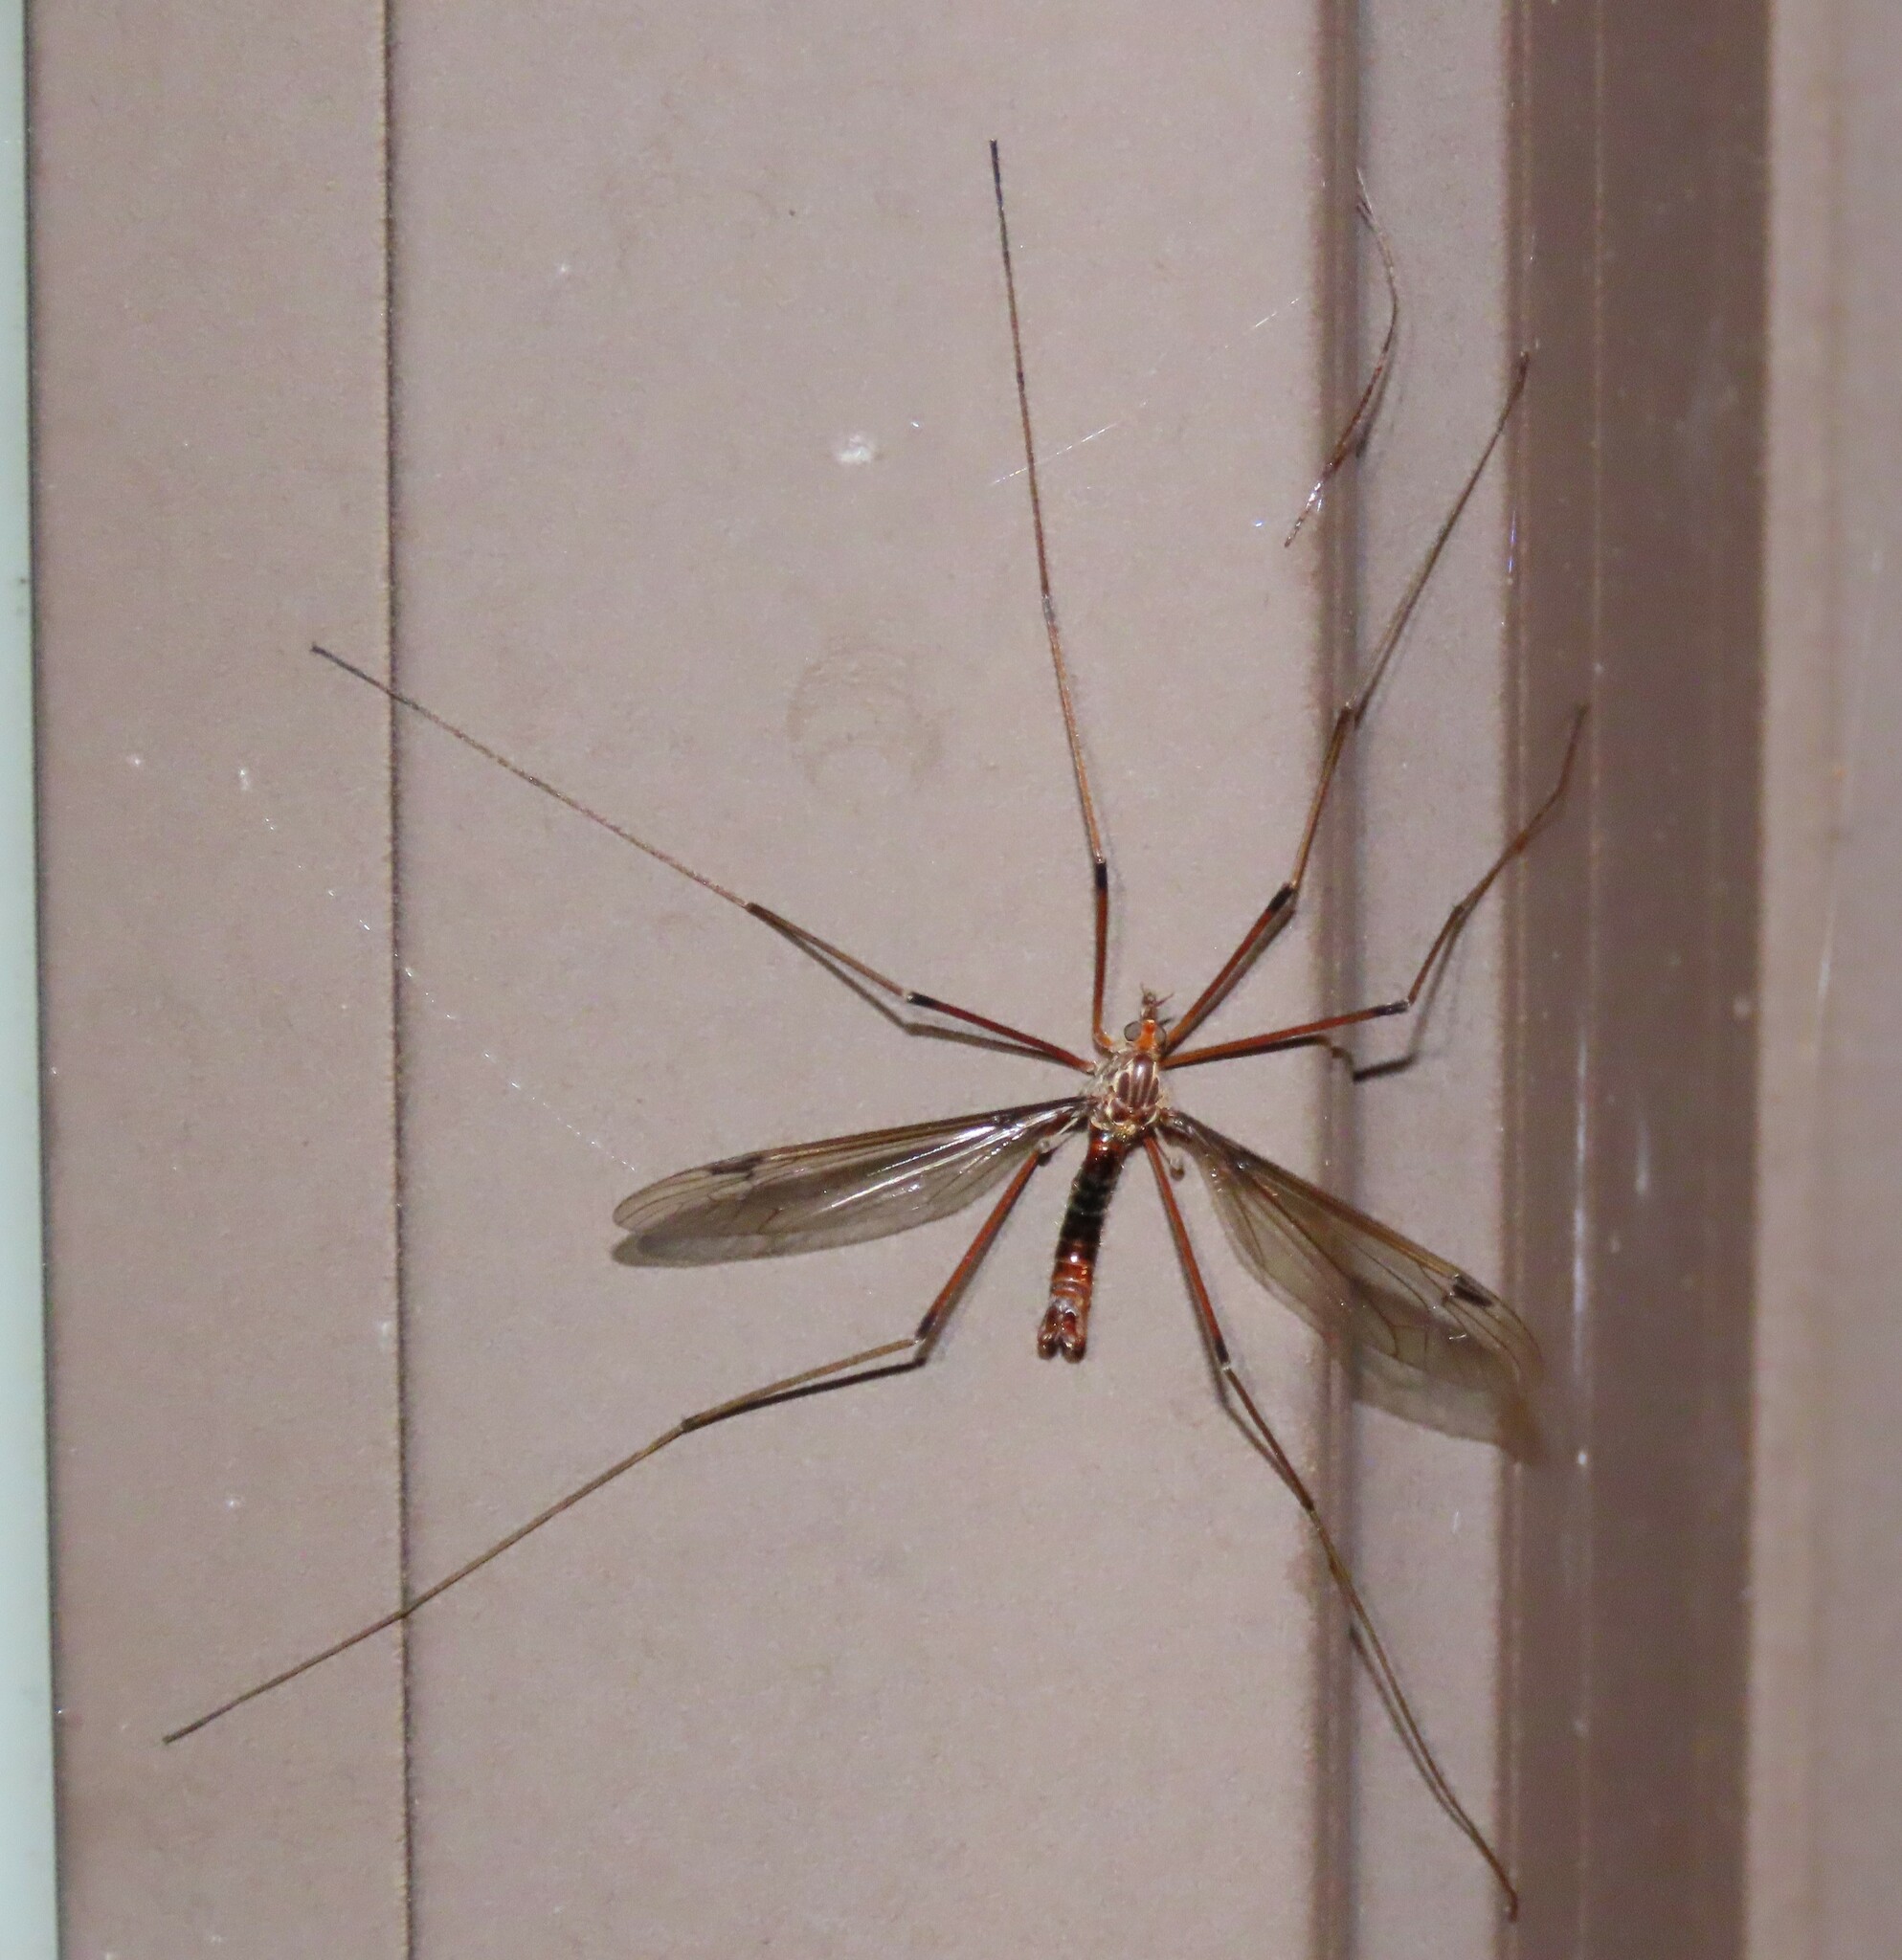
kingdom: Animalia
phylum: Arthropoda
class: Insecta
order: Diptera
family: Tipulidae
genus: Leptotarsus
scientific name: Leptotarsus heterogamus
